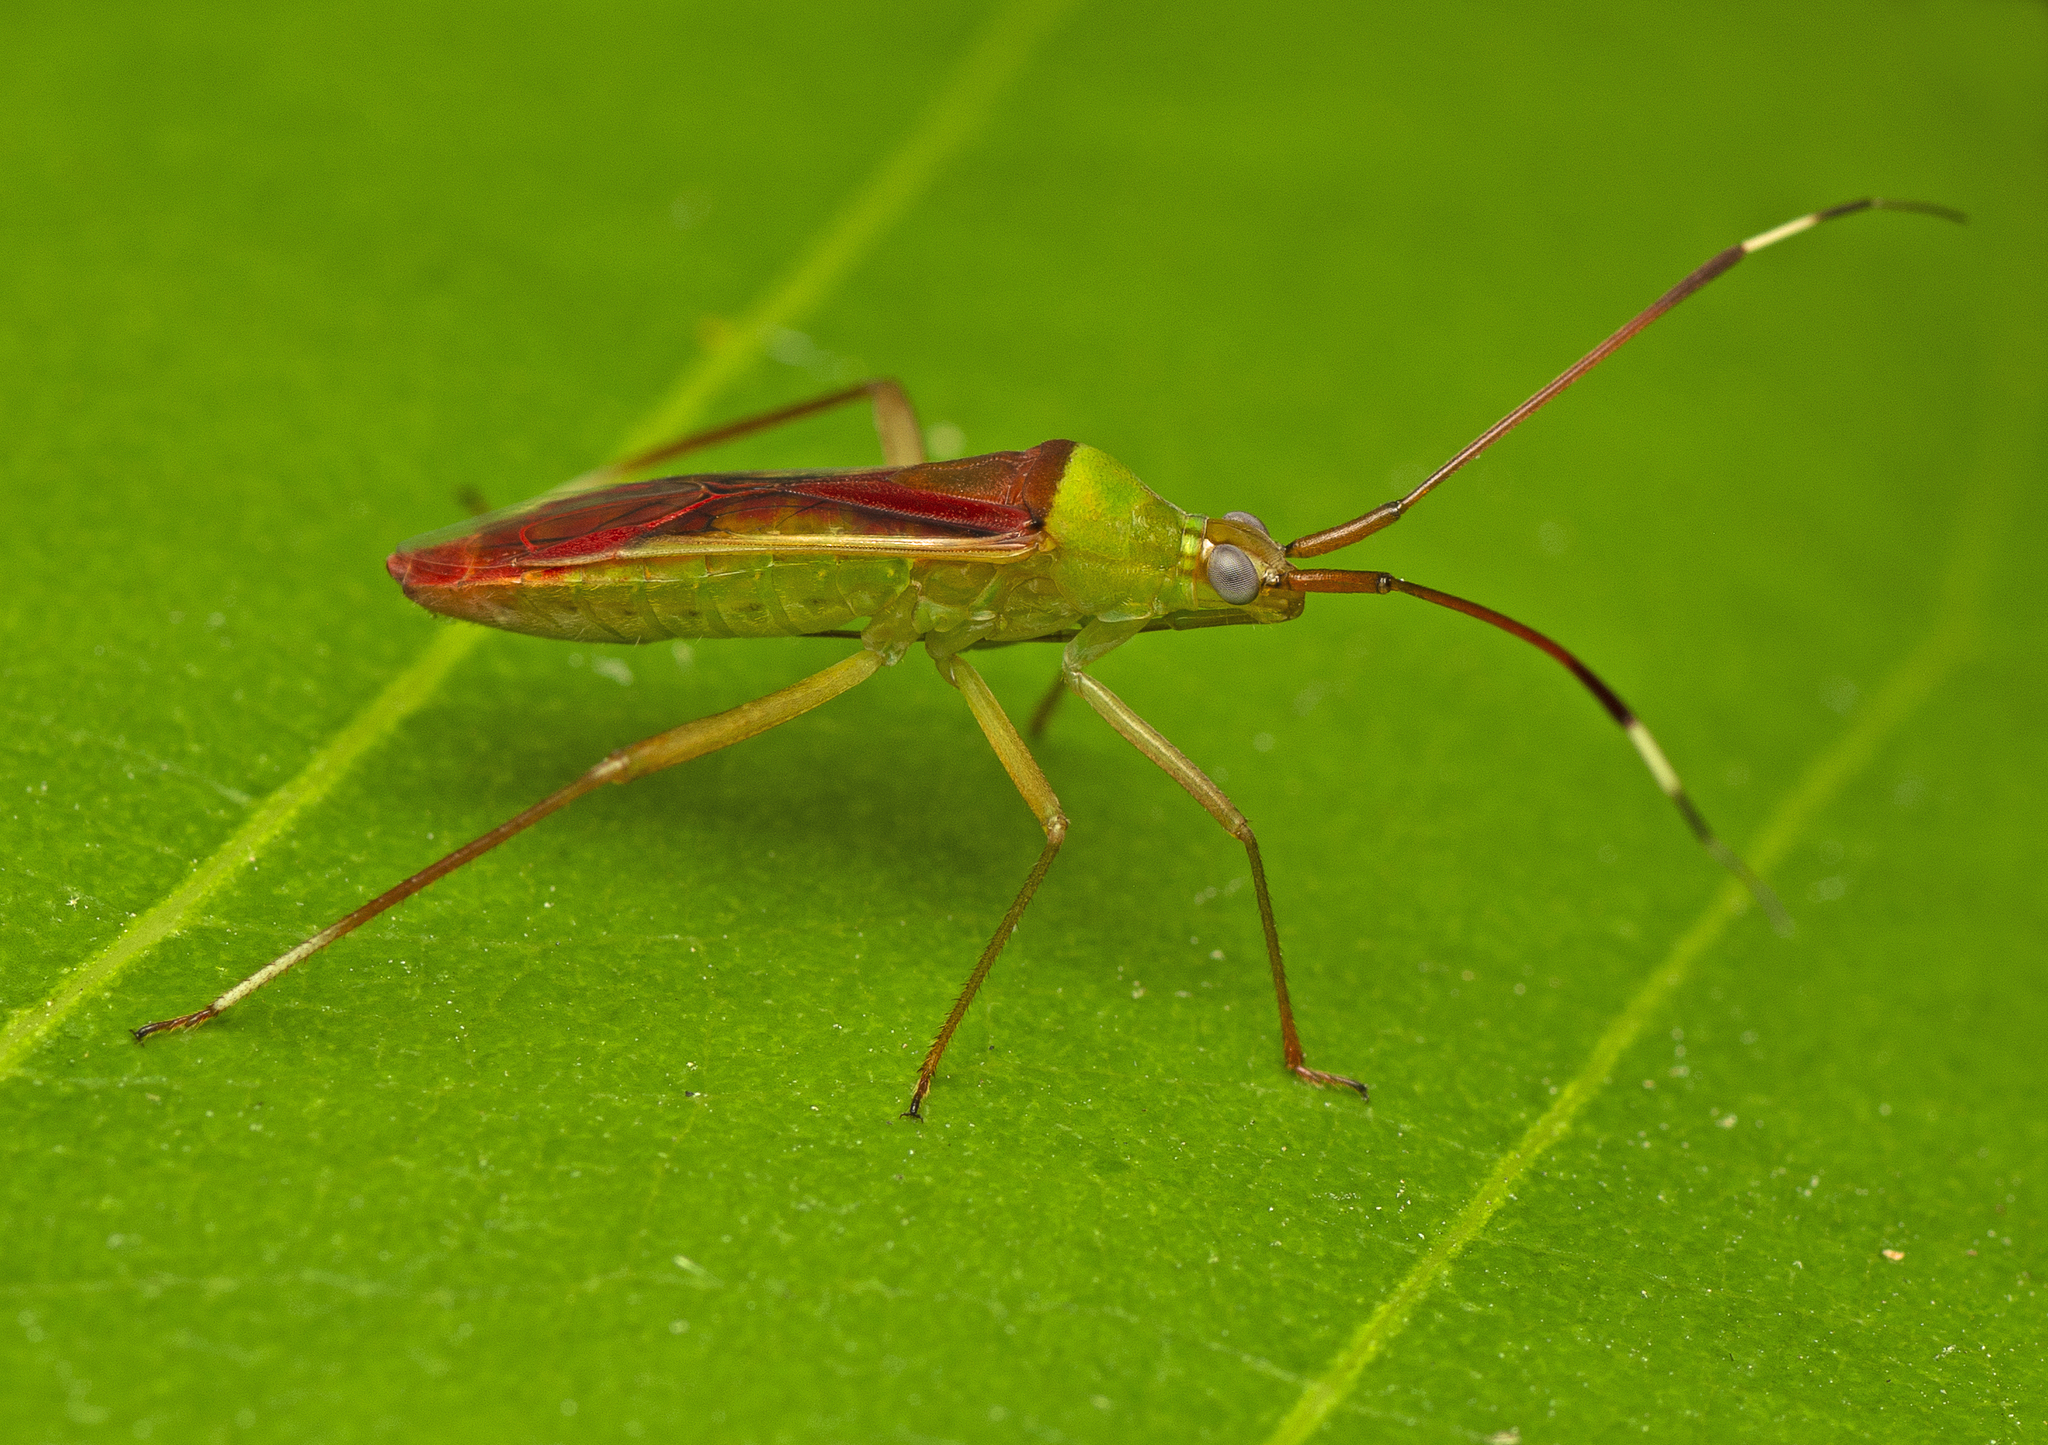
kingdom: Animalia
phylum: Arthropoda
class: Insecta
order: Hemiptera
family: Miridae
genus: Hyalopeplus
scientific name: Hyalopeplus rubroclavatus
